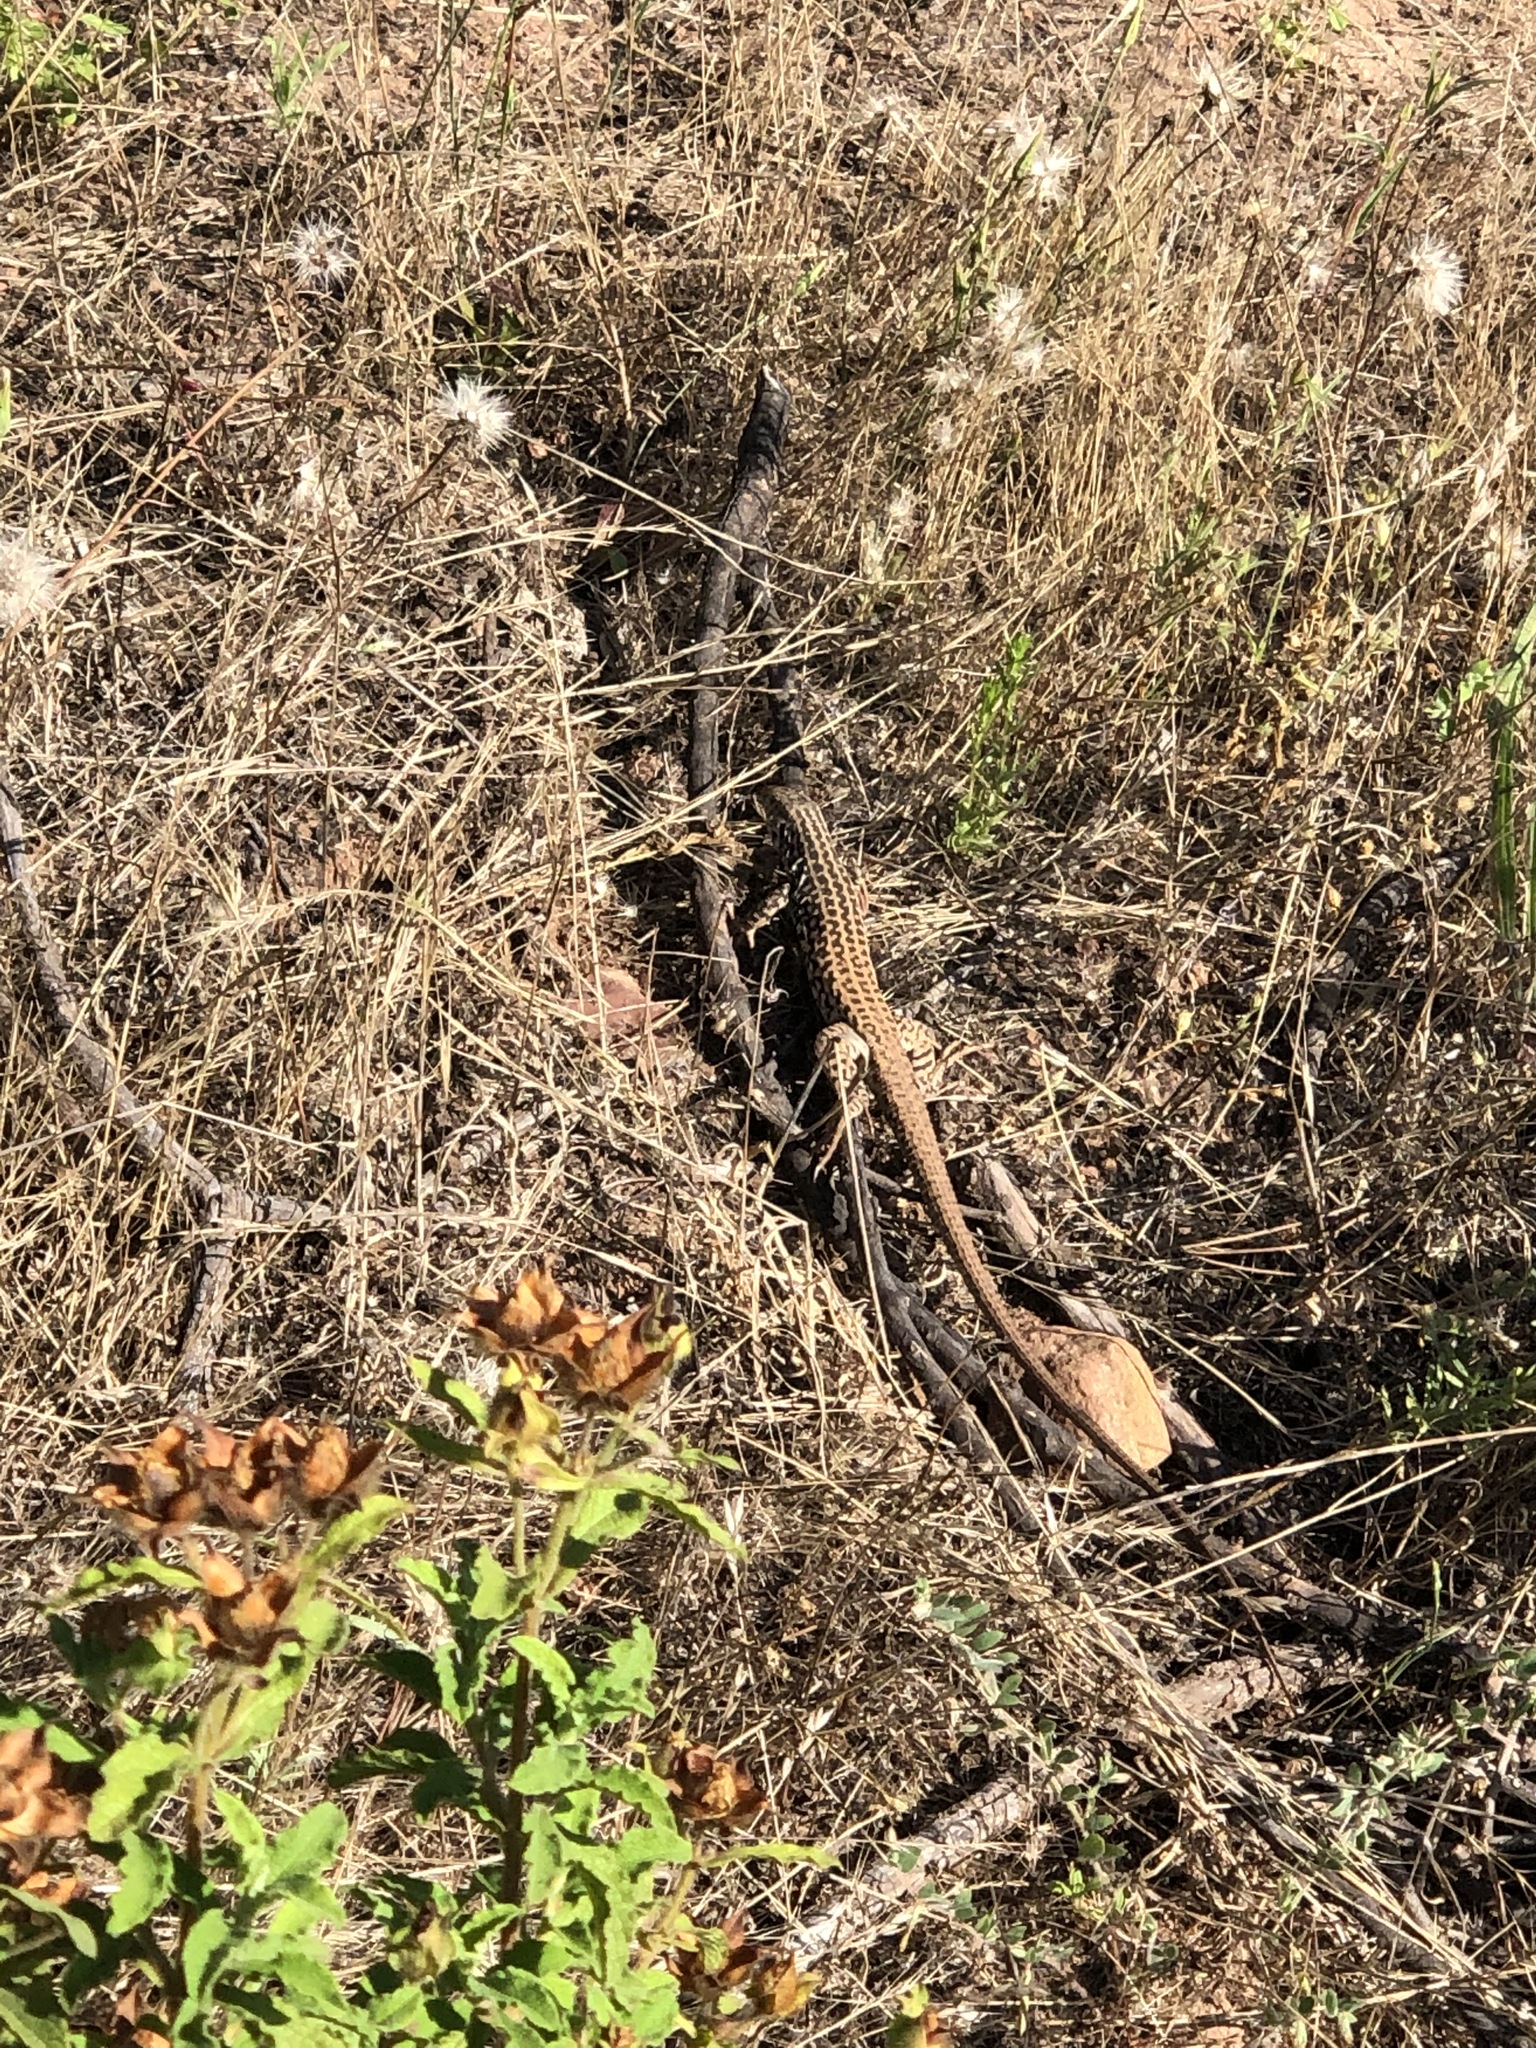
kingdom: Animalia
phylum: Chordata
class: Squamata
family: Teiidae
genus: Aspidoscelis
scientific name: Aspidoscelis tigris
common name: Tiger whiptail
